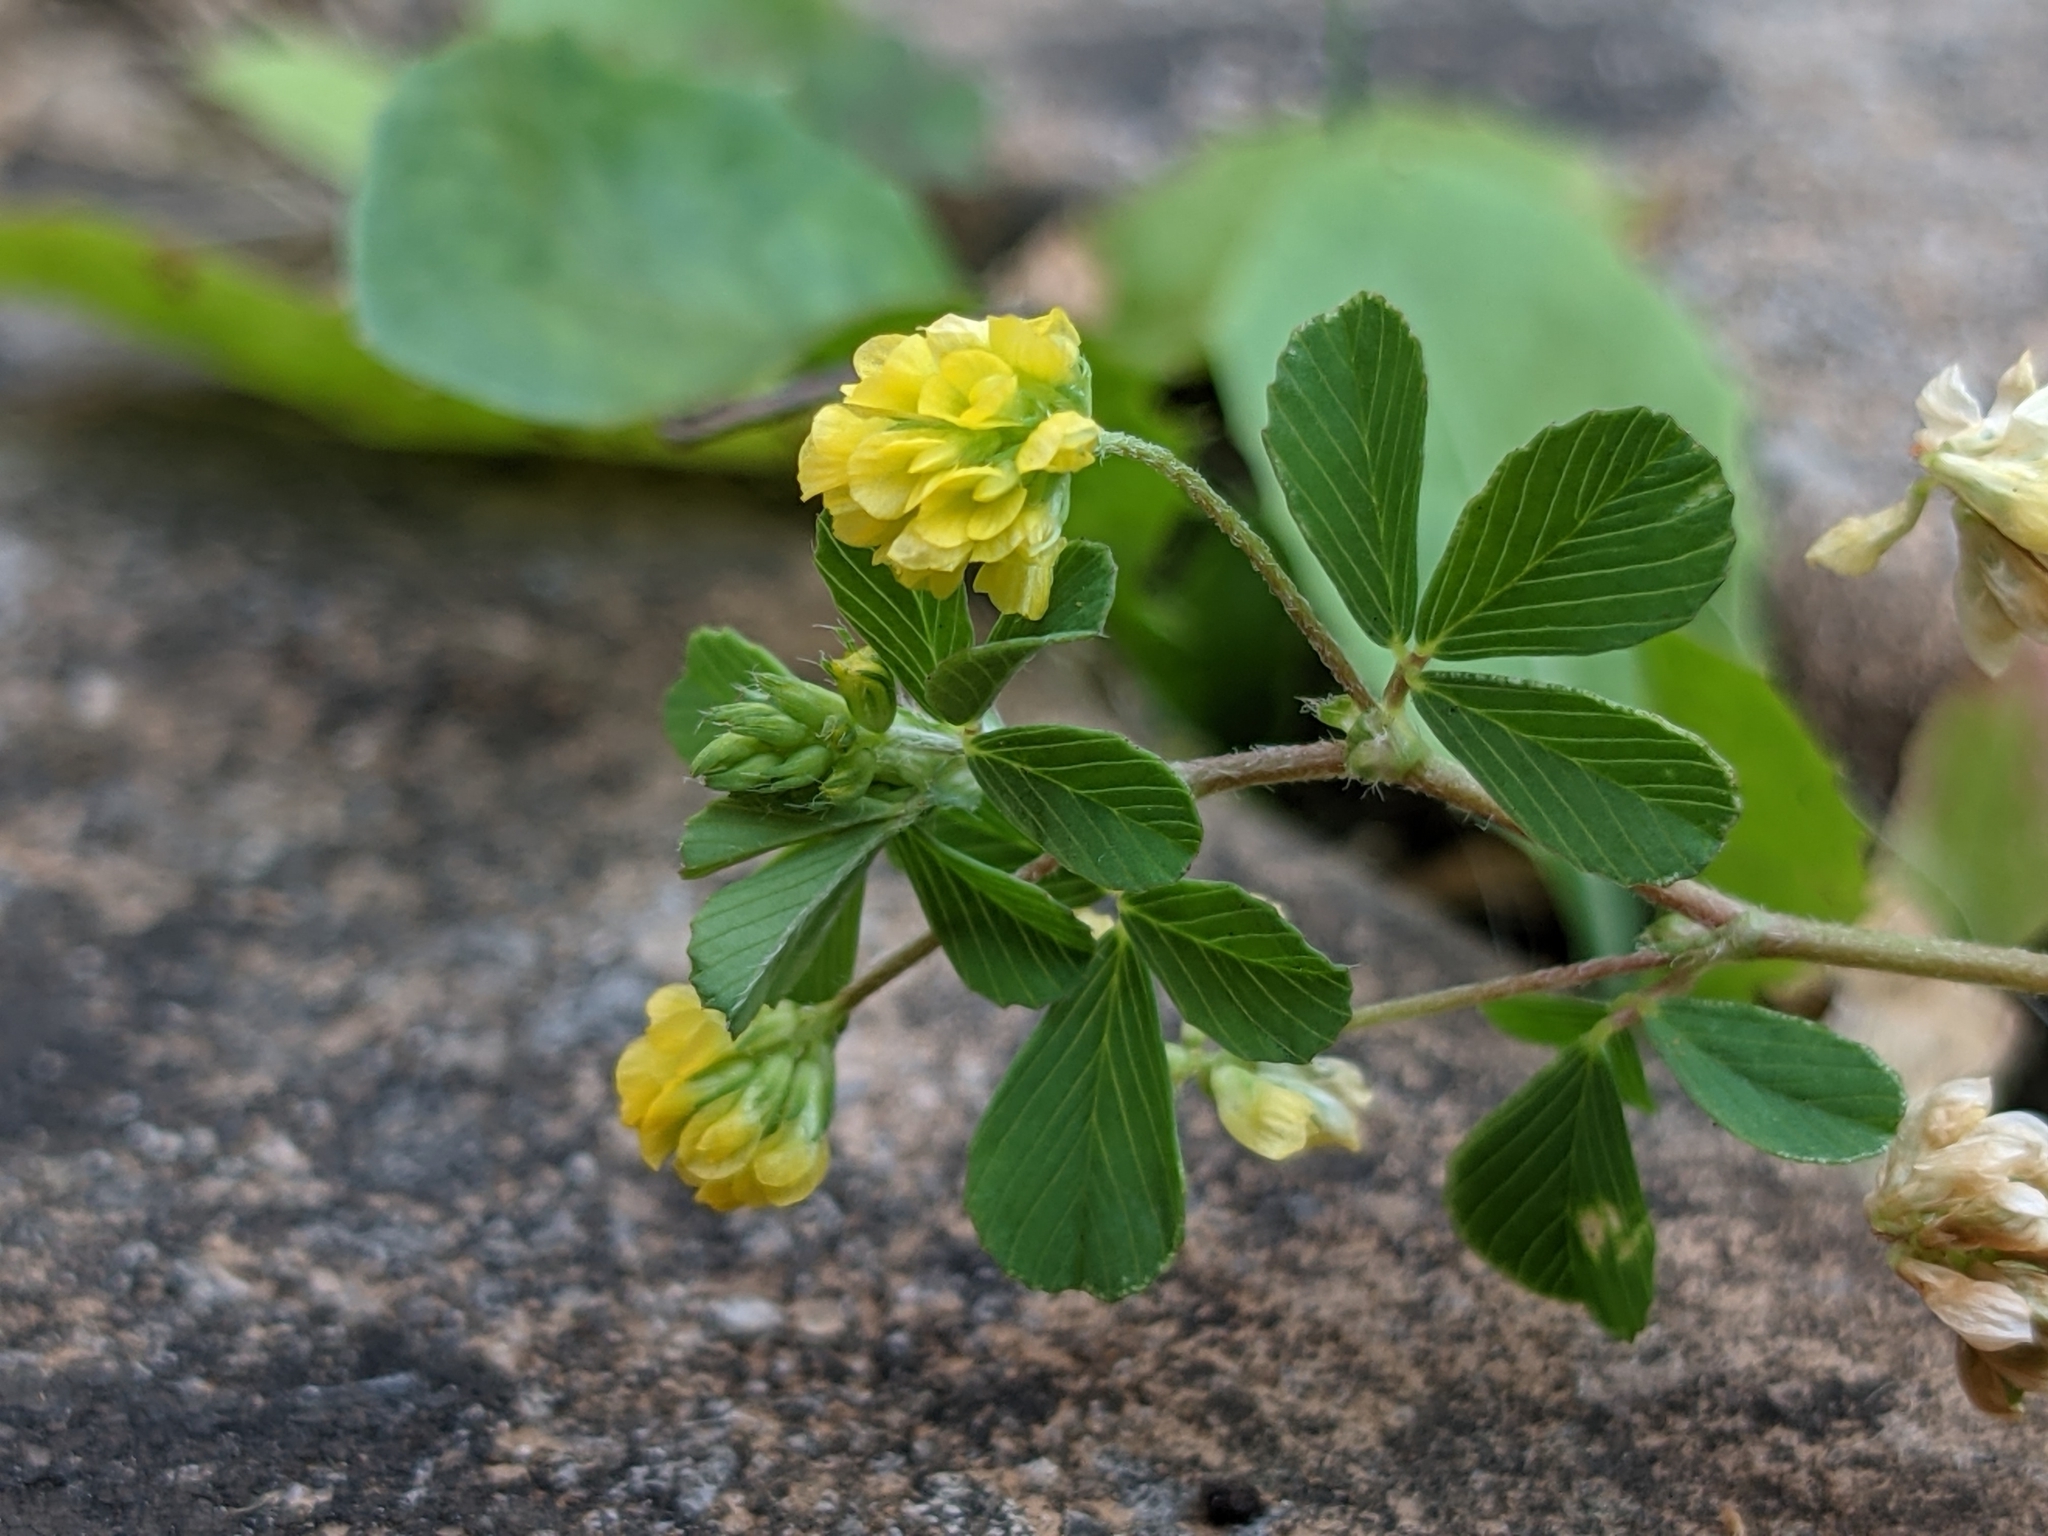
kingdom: Plantae
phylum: Tracheophyta
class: Magnoliopsida
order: Fabales
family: Fabaceae
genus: Trifolium
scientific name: Trifolium dubium
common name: Suckling clover
